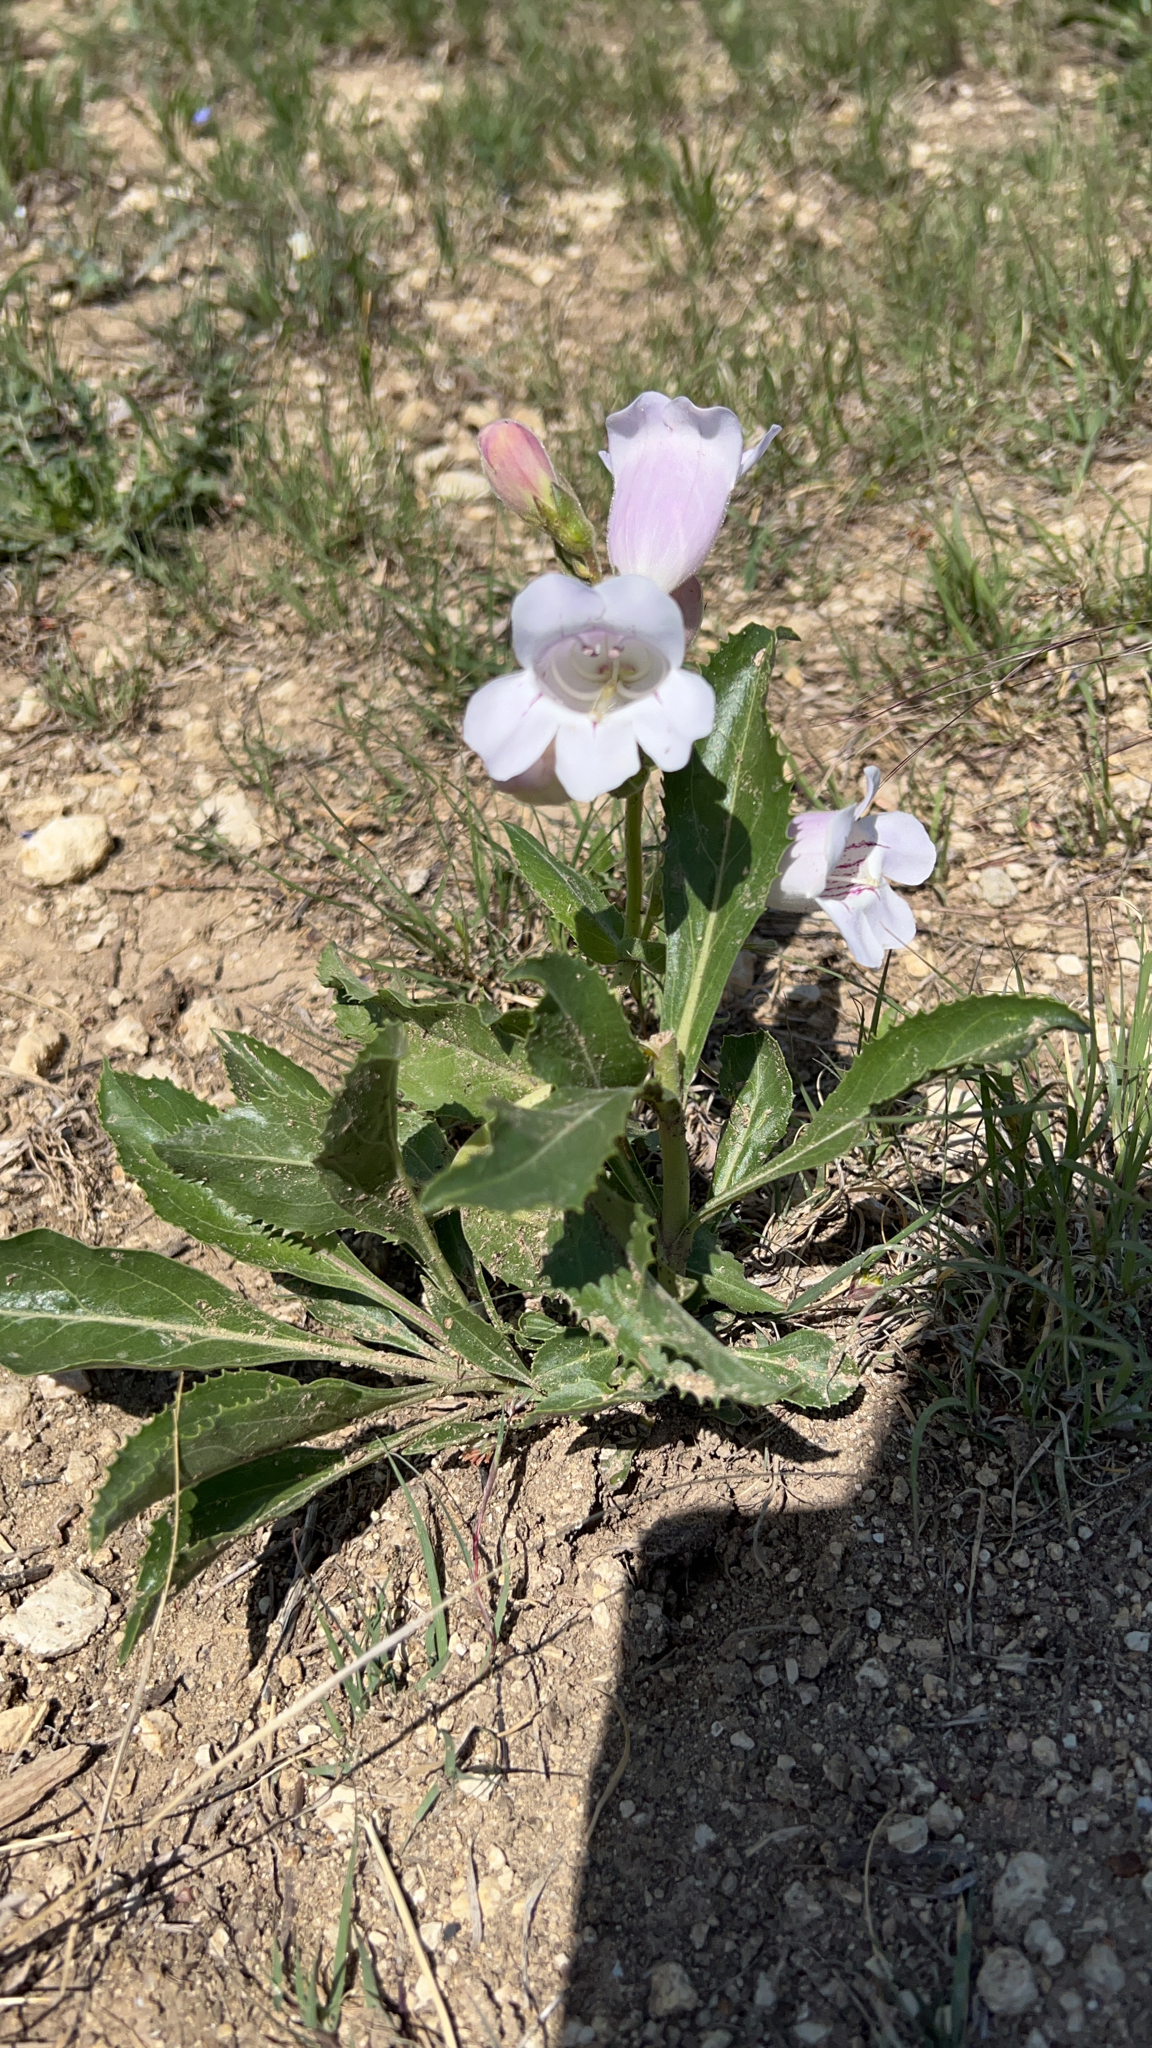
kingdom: Plantae
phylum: Tracheophyta
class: Magnoliopsida
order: Lamiales
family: Plantaginaceae
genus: Penstemon
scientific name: Penstemon cobaea
